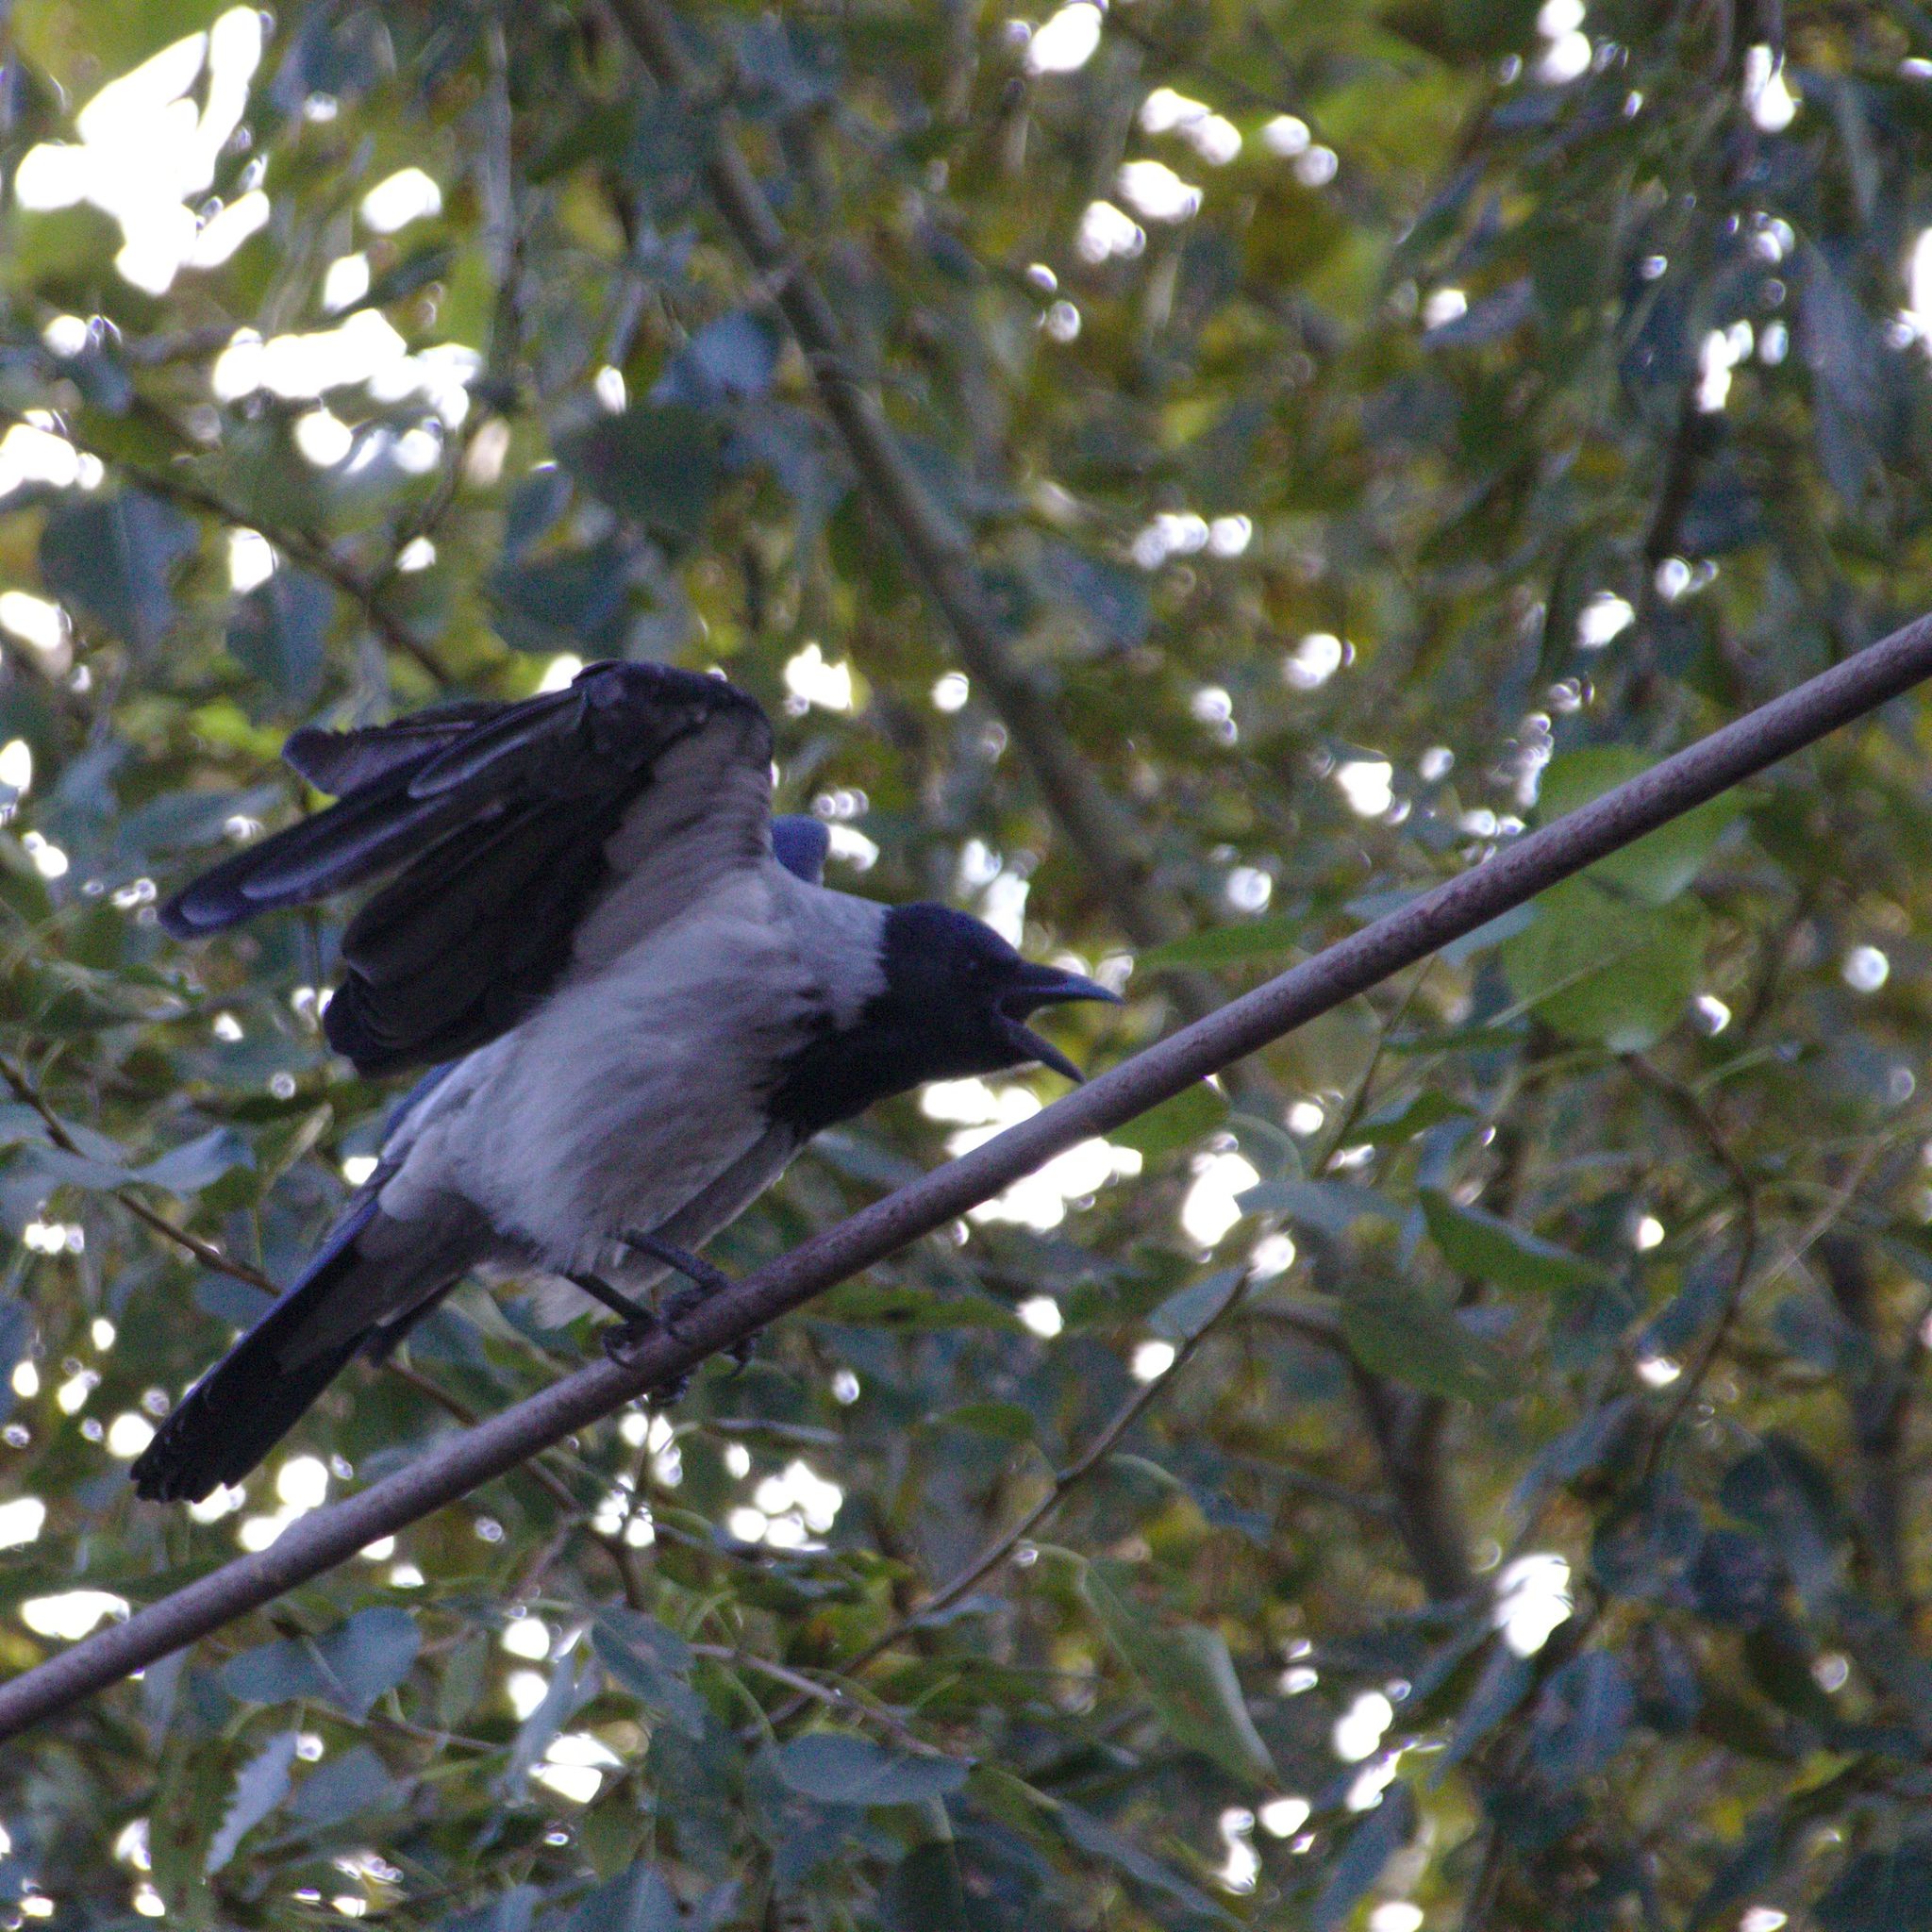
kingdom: Animalia
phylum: Chordata
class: Aves
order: Passeriformes
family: Corvidae
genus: Corvus
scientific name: Corvus cornix
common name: Hooded crow
